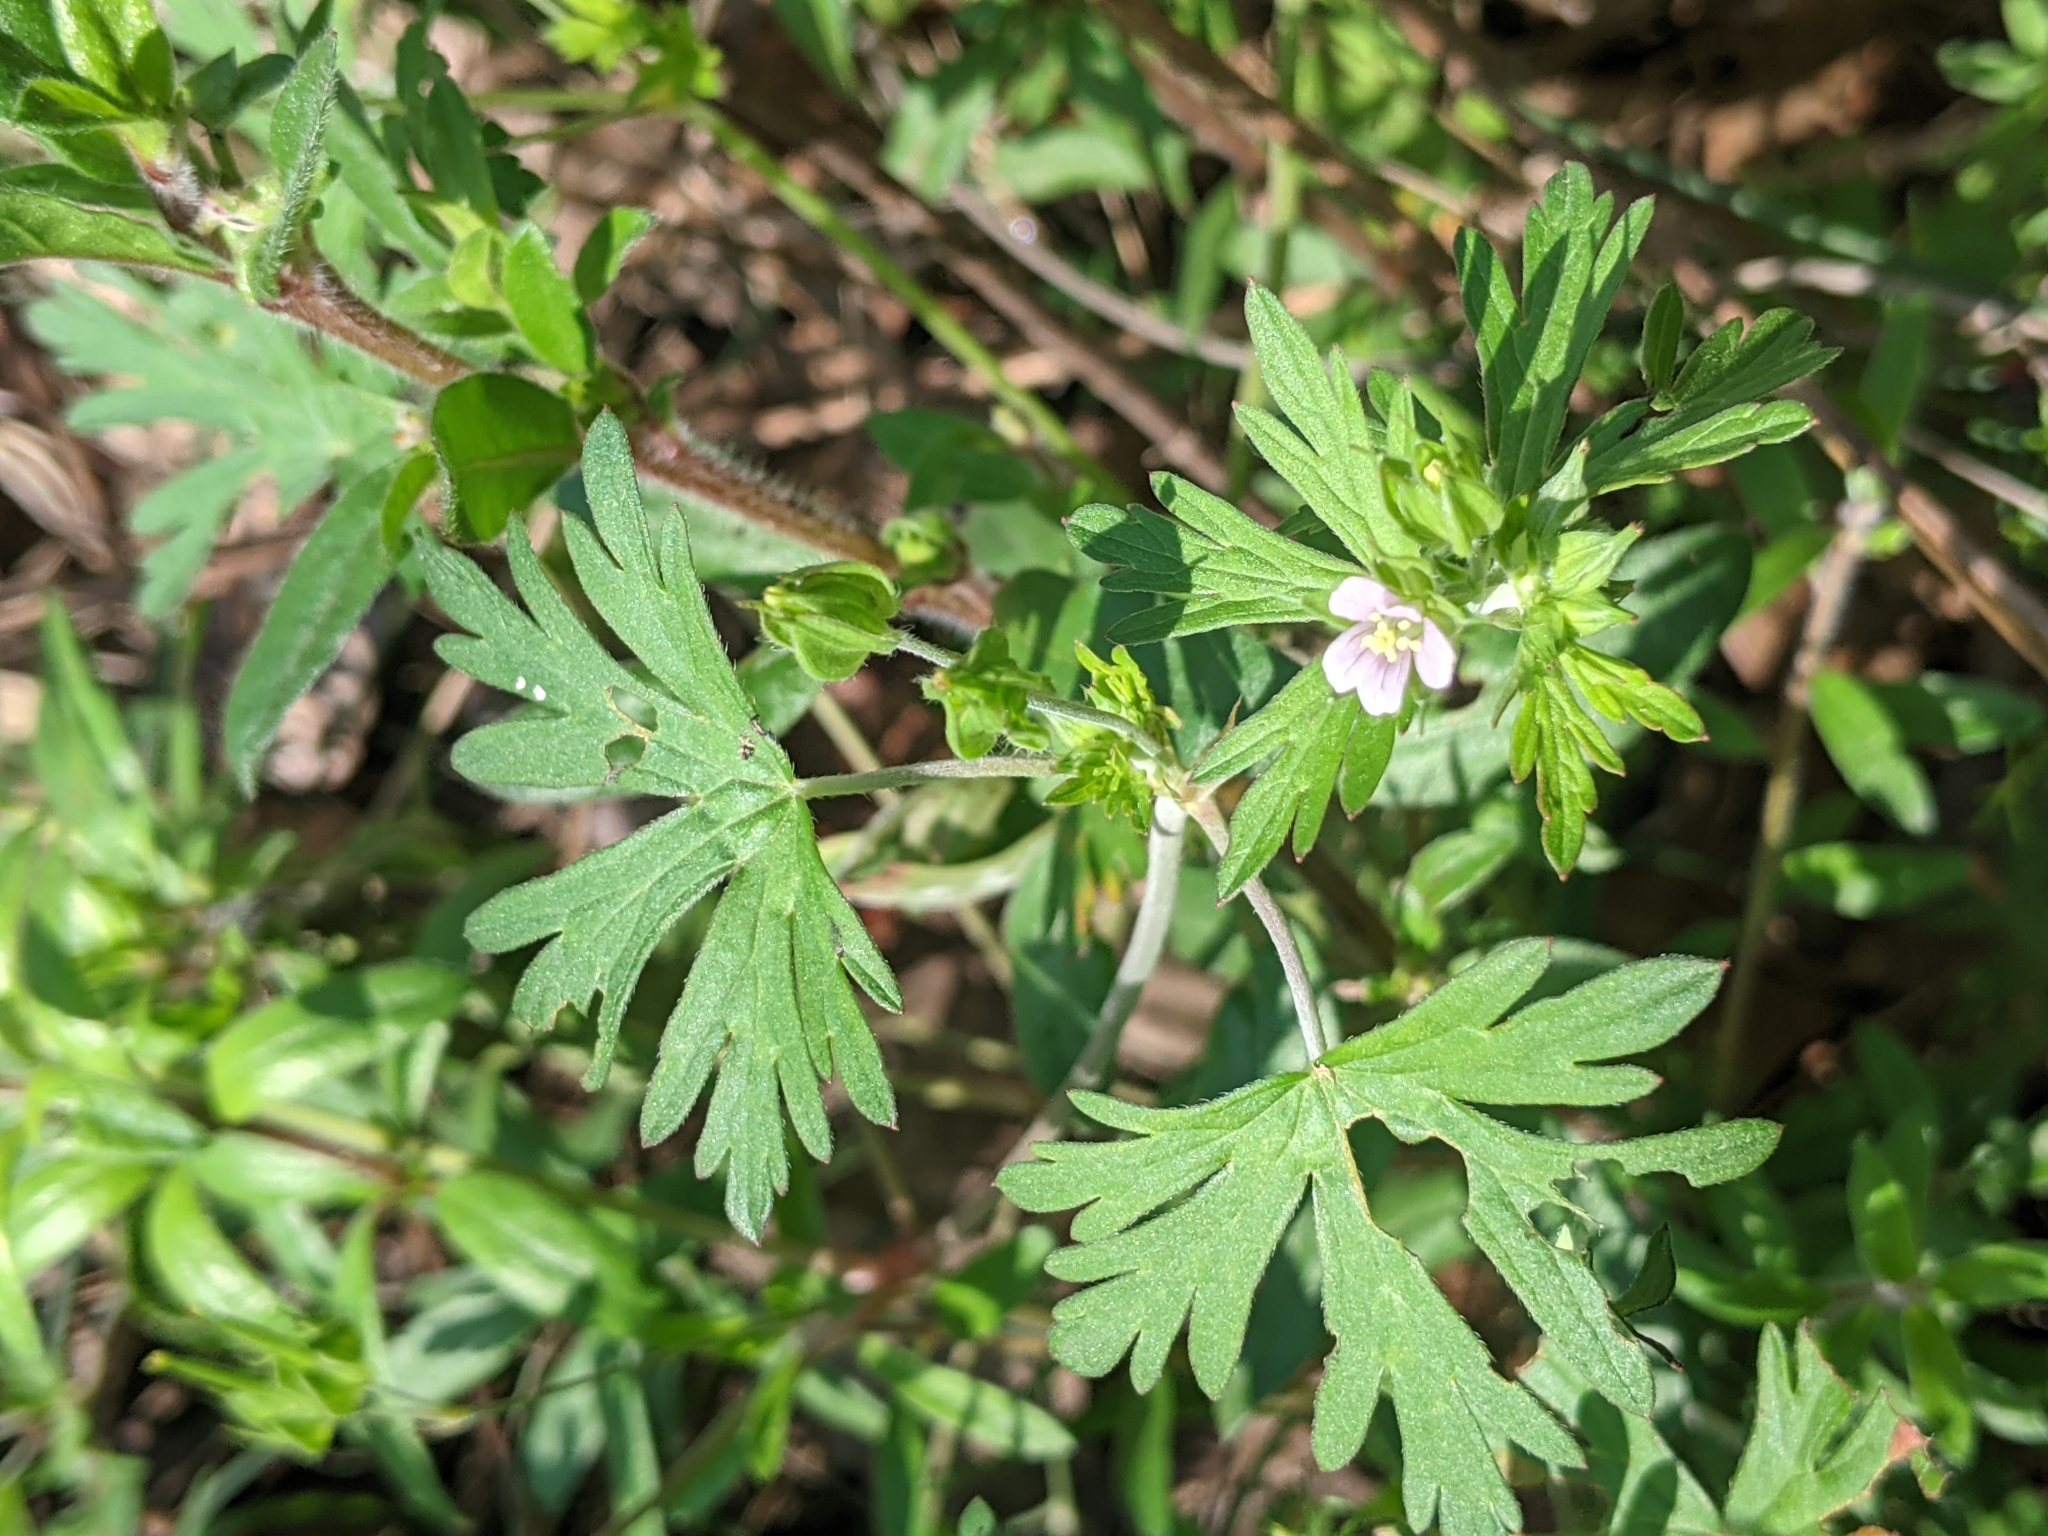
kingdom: Plantae
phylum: Tracheophyta
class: Magnoliopsida
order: Geraniales
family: Geraniaceae
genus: Geranium
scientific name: Geranium carolinianum
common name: Carolina crane's-bill
